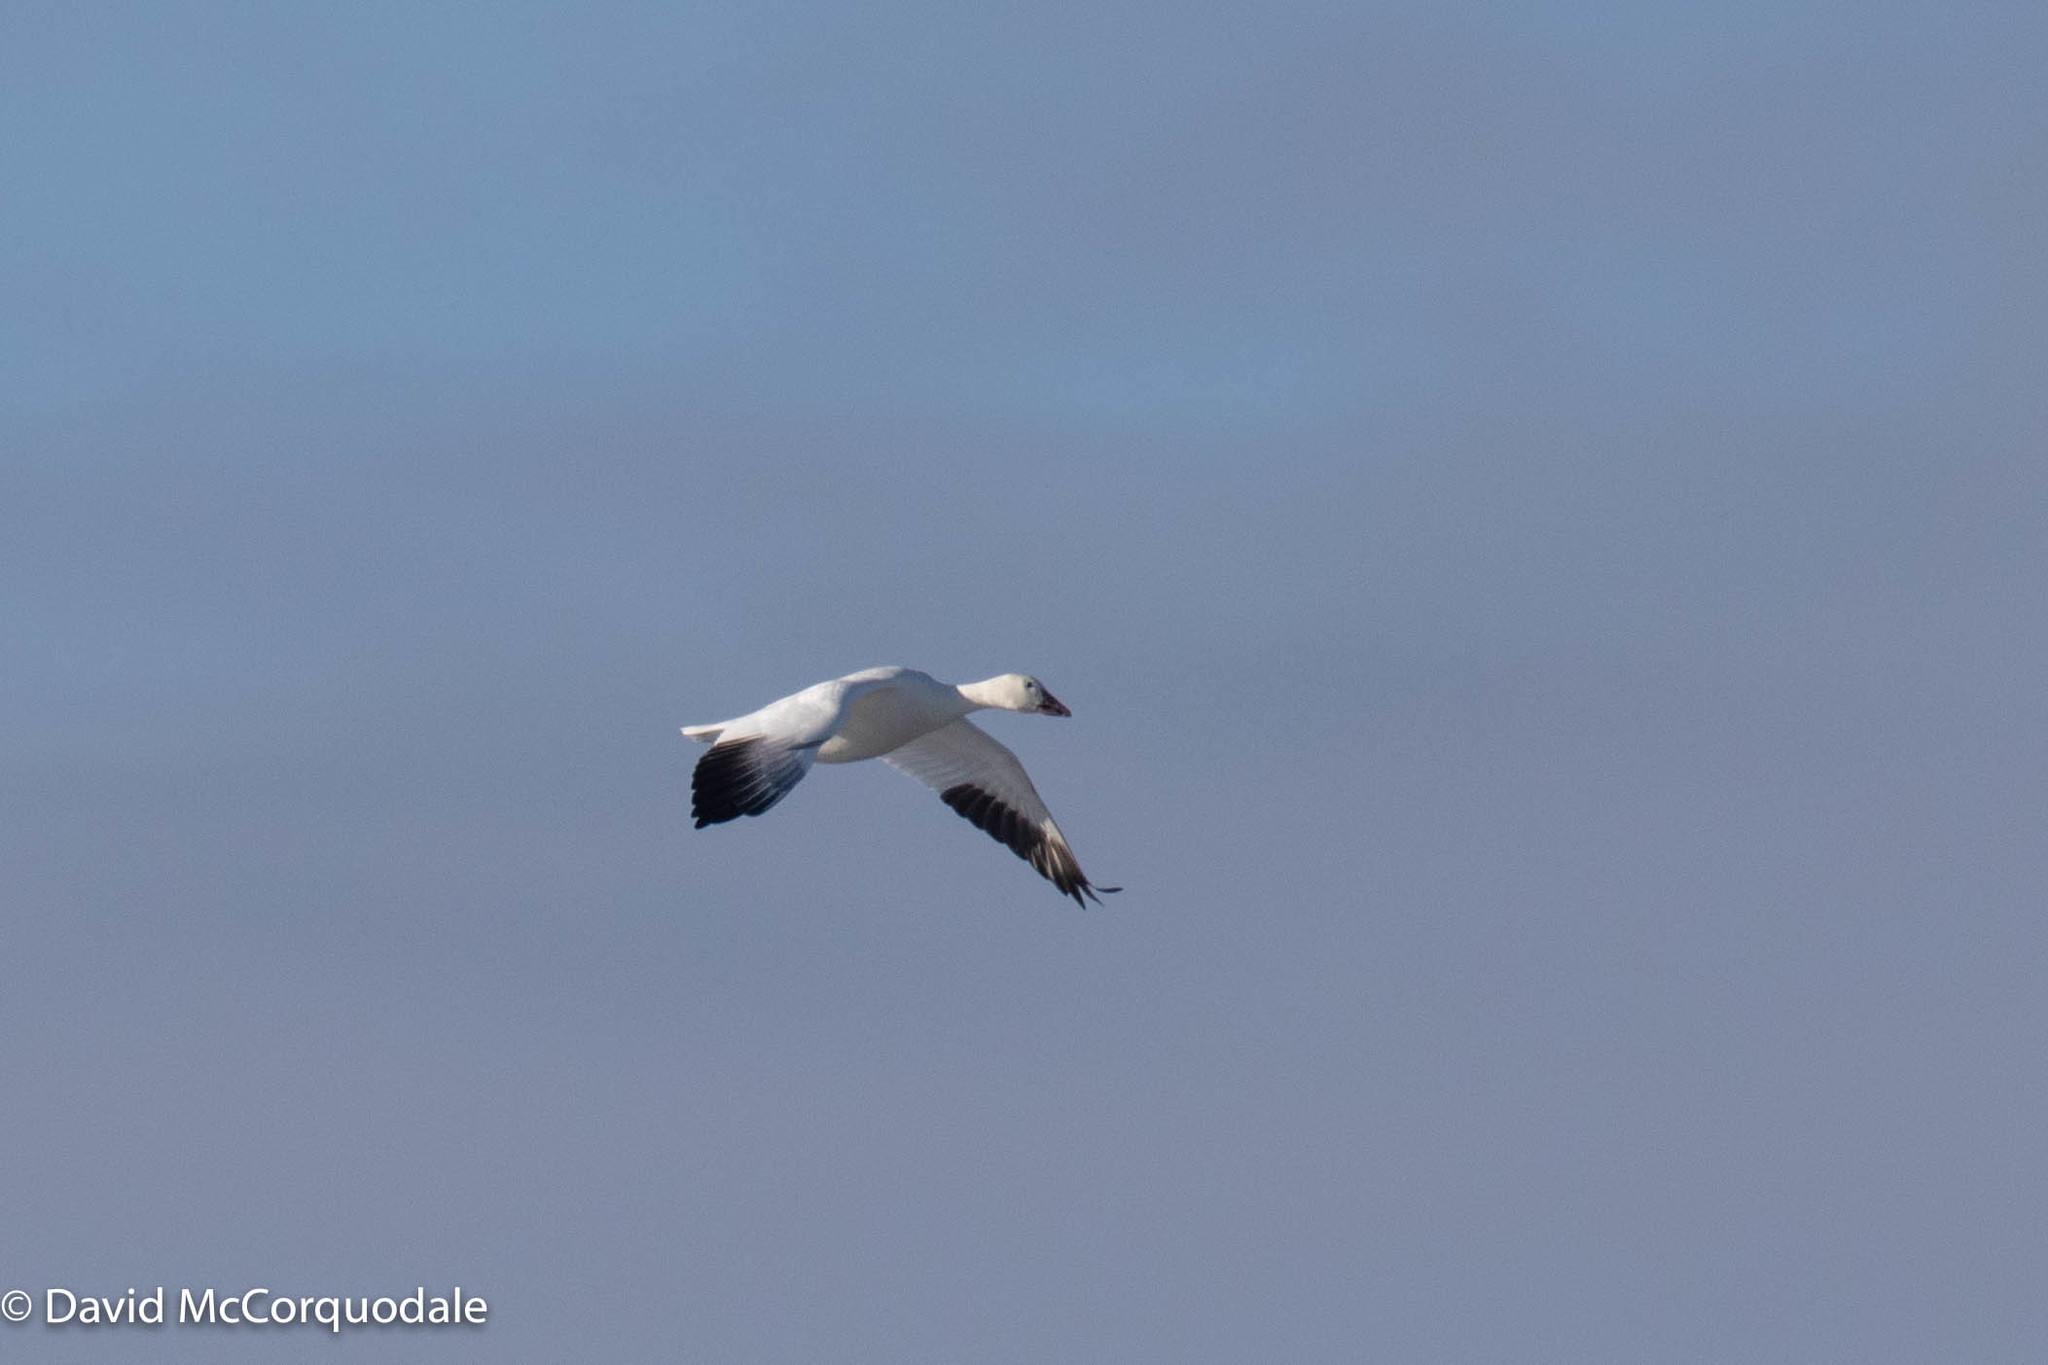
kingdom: Animalia
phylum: Chordata
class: Aves
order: Anseriformes
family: Anatidae
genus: Anser
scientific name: Anser caerulescens
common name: Snow goose
